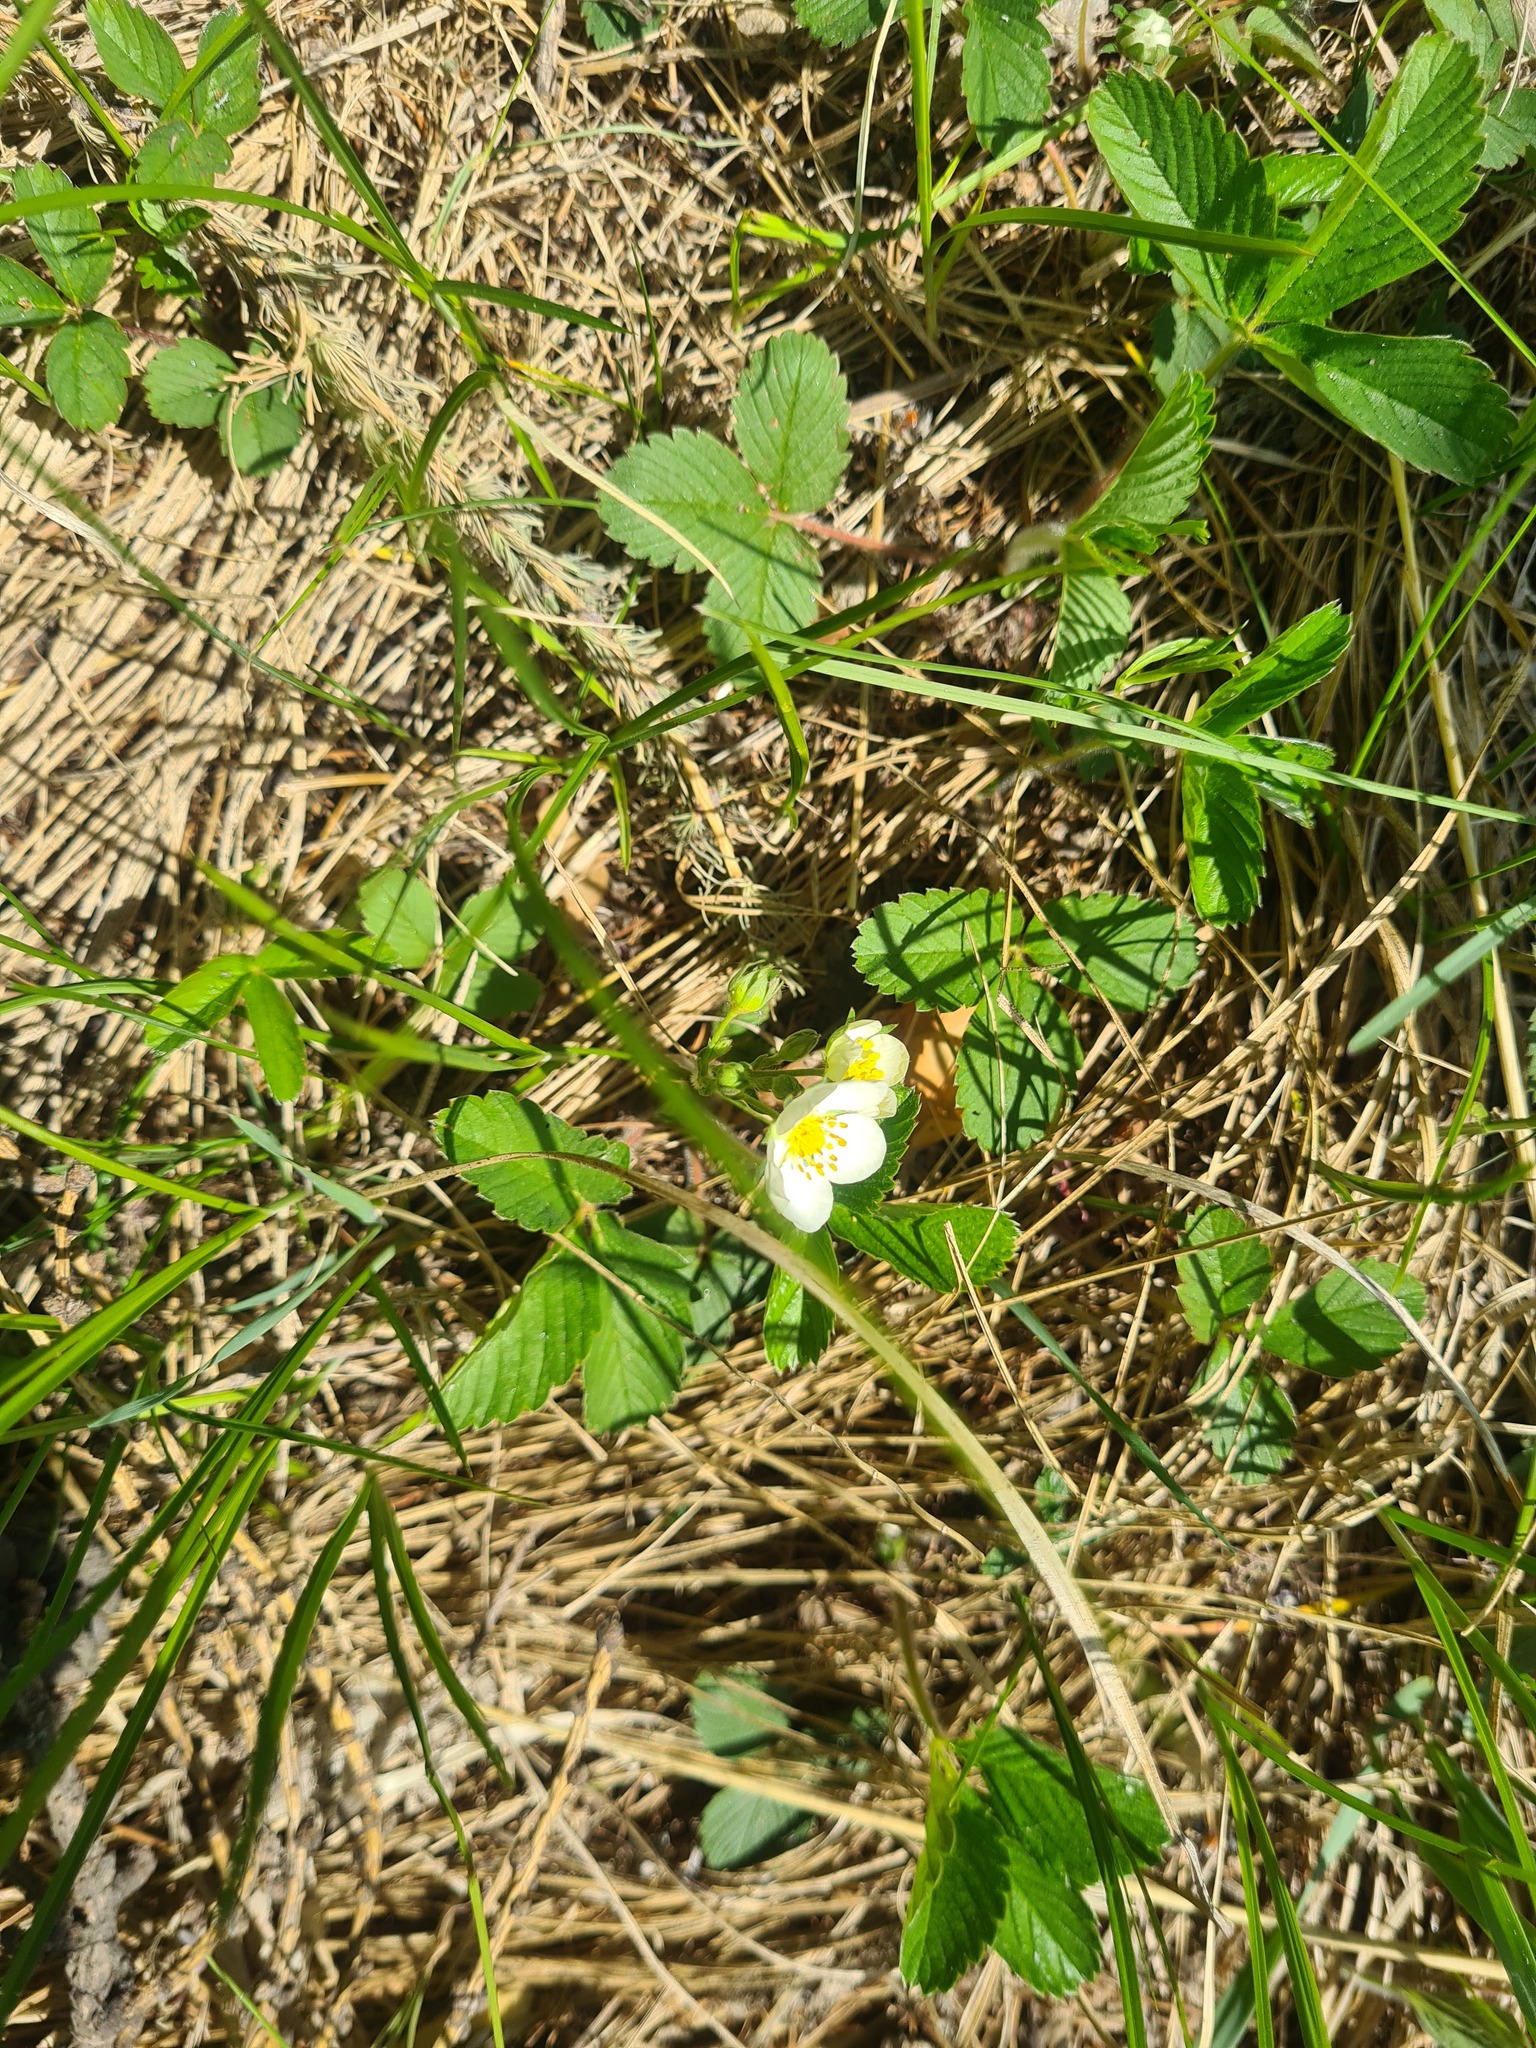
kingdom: Plantae
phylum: Tracheophyta
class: Magnoliopsida
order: Rosales
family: Rosaceae
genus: Fragaria
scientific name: Fragaria viridis
